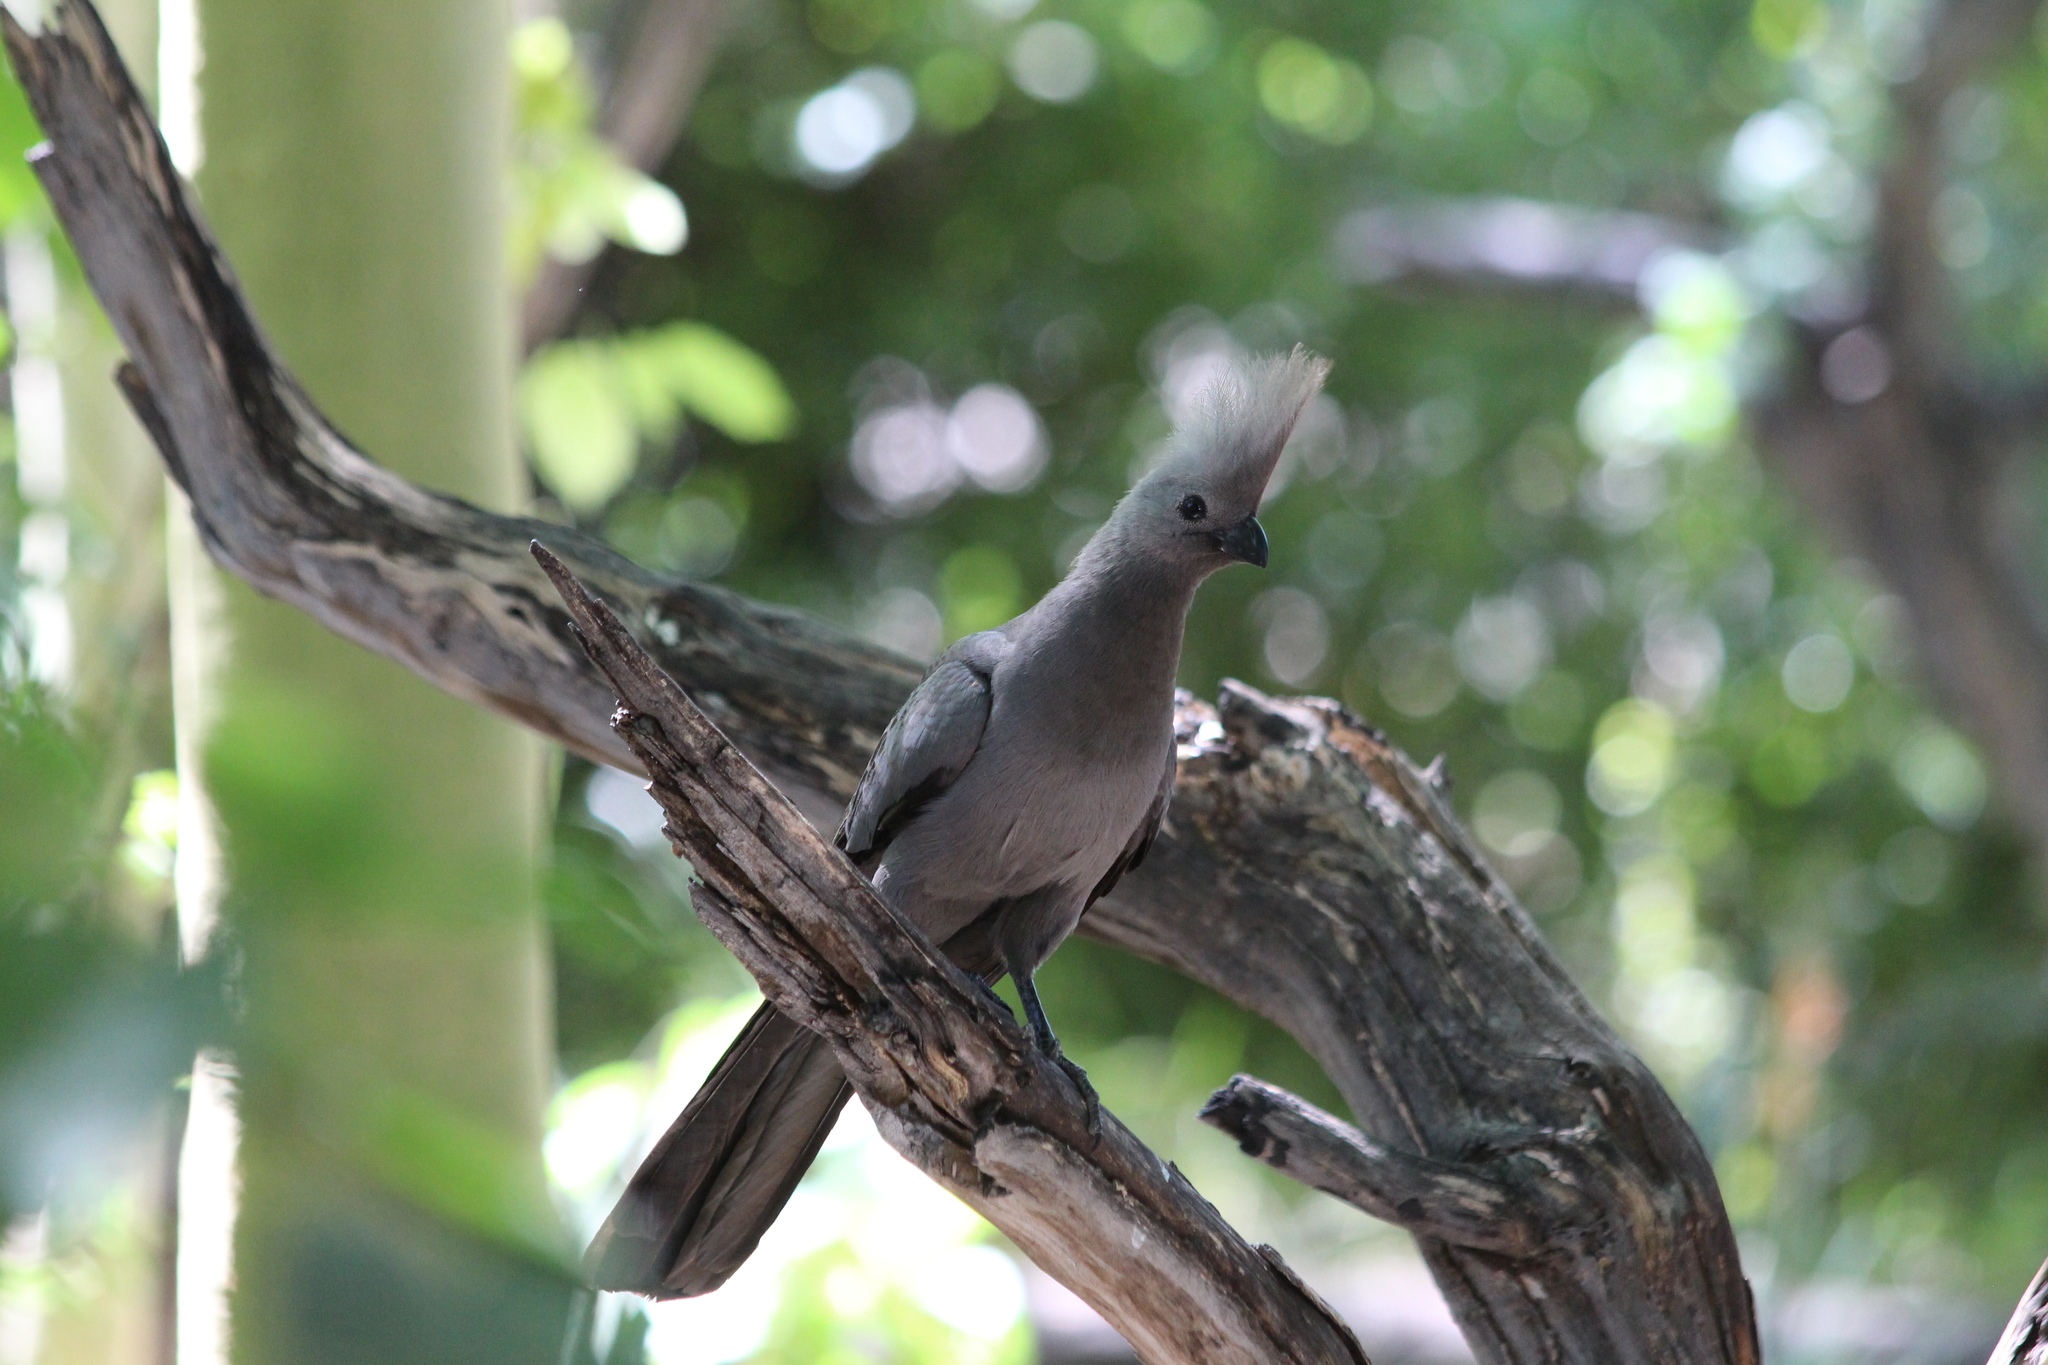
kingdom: Animalia
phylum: Chordata
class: Aves
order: Musophagiformes
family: Musophagidae
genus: Corythaixoides
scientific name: Corythaixoides concolor
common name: Grey go-away-bird
